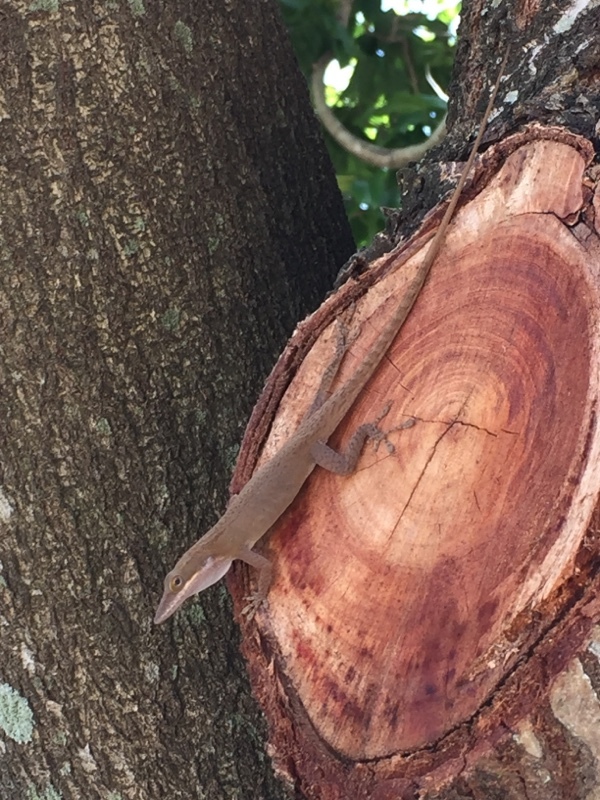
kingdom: Animalia
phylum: Chordata
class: Squamata
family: Dactyloidae
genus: Anolis
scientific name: Anolis porcatus
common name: Cuban green anole
